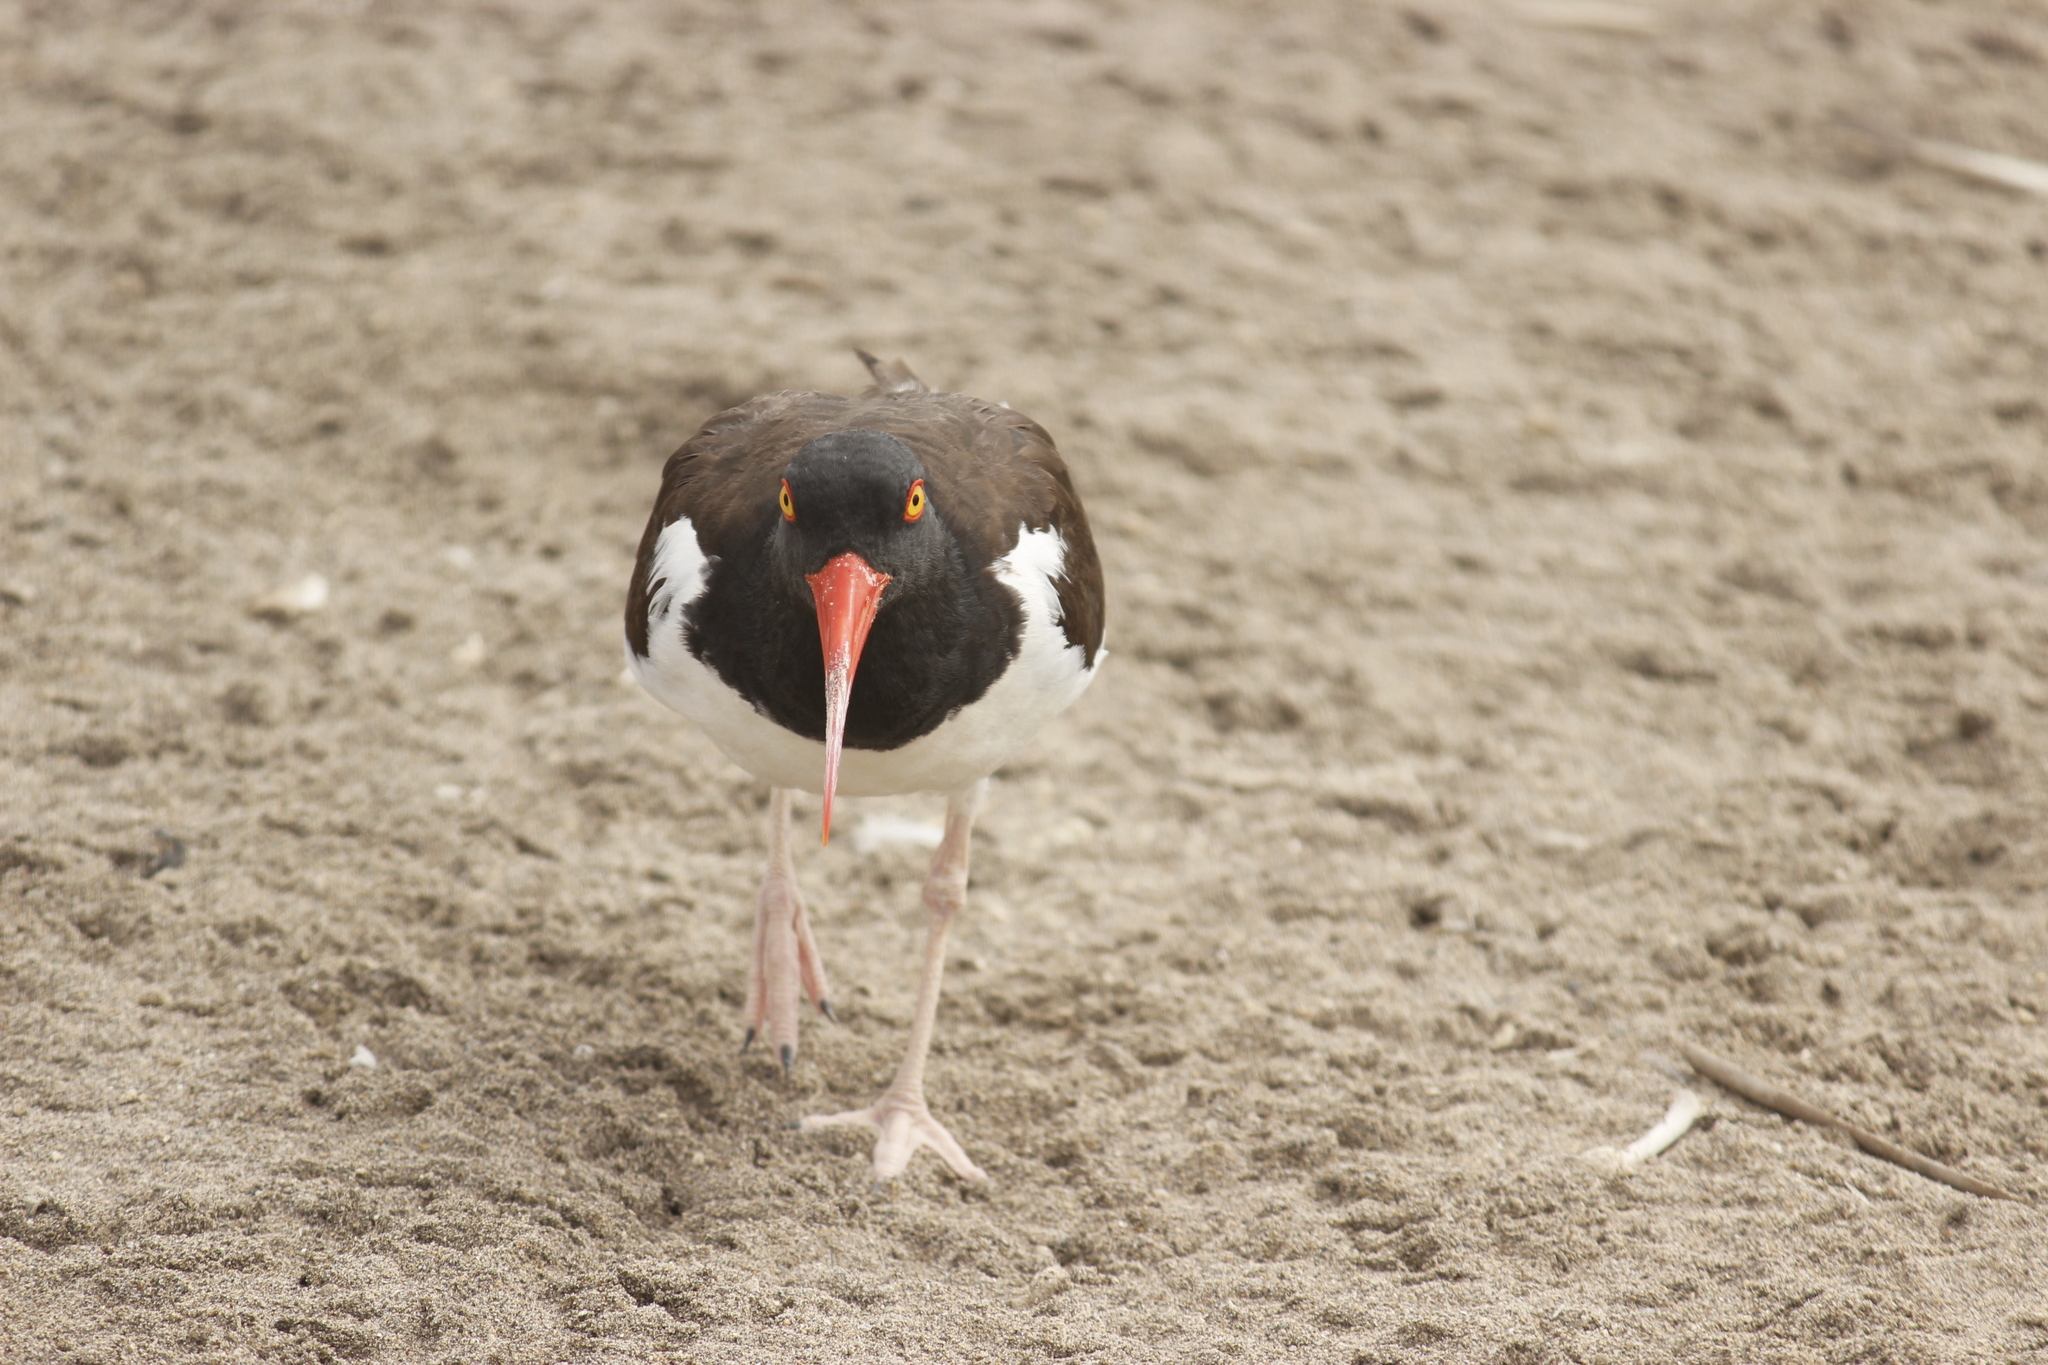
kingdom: Animalia
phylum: Chordata
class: Aves
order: Charadriiformes
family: Haematopodidae
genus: Haematopus
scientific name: Haematopus palliatus
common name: American oystercatcher
